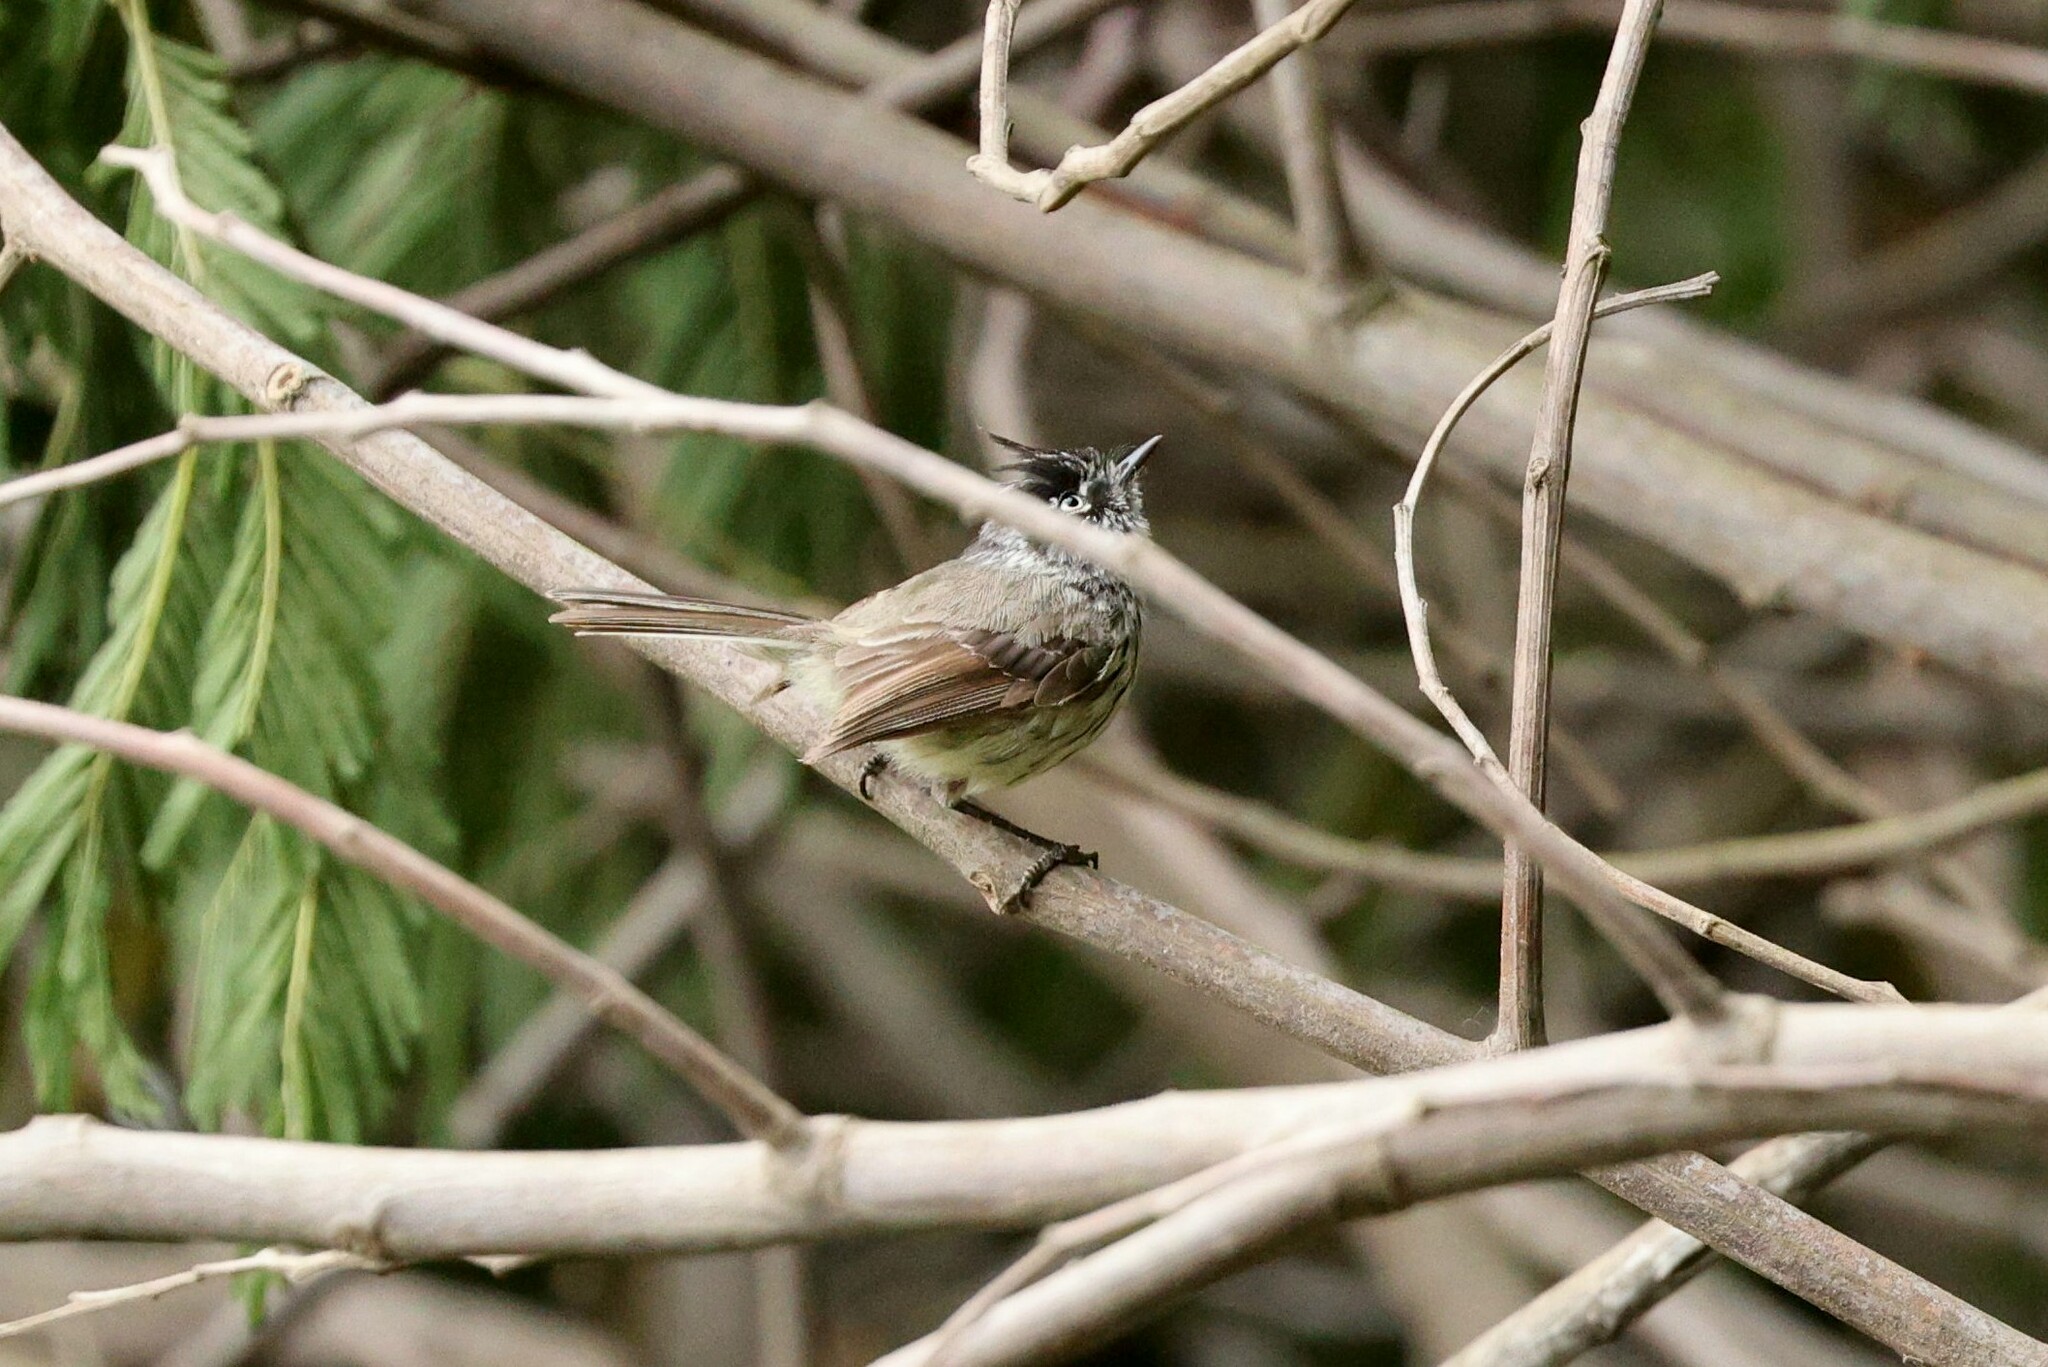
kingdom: Animalia
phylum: Chordata
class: Aves
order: Passeriformes
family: Tyrannidae
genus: Anairetes
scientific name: Anairetes parulus
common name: Tufted tit-tyrant
